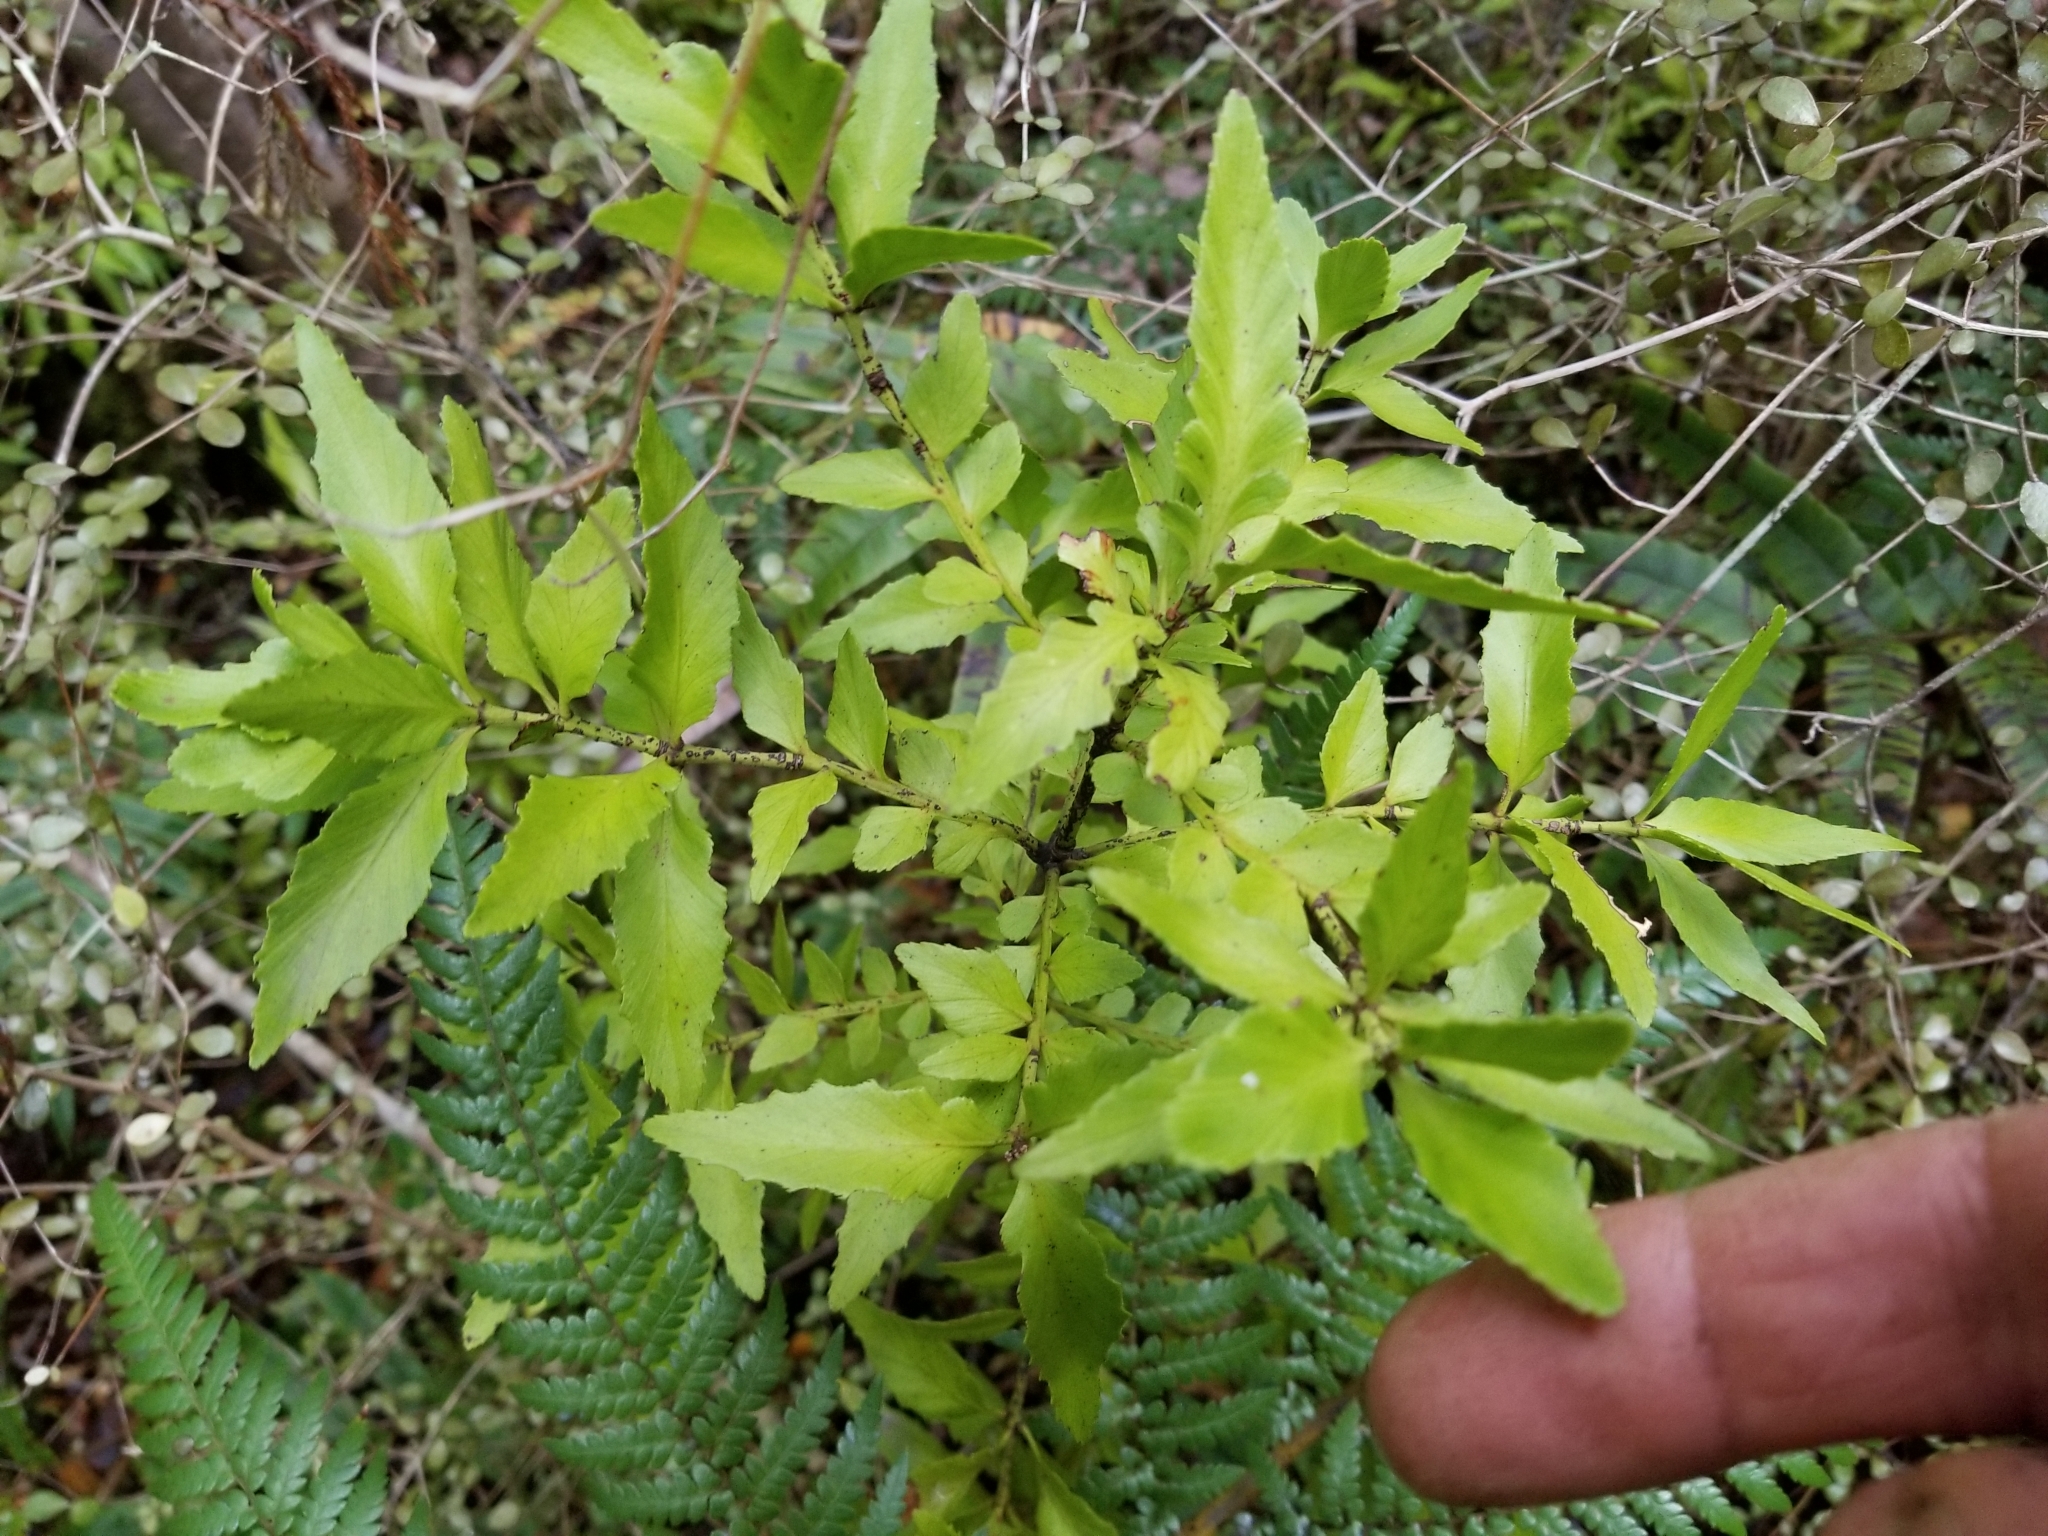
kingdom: Plantae
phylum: Tracheophyta
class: Pinopsida
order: Pinales
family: Phyllocladaceae
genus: Phyllocladus
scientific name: Phyllocladus trichomanoides
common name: Celery pine
